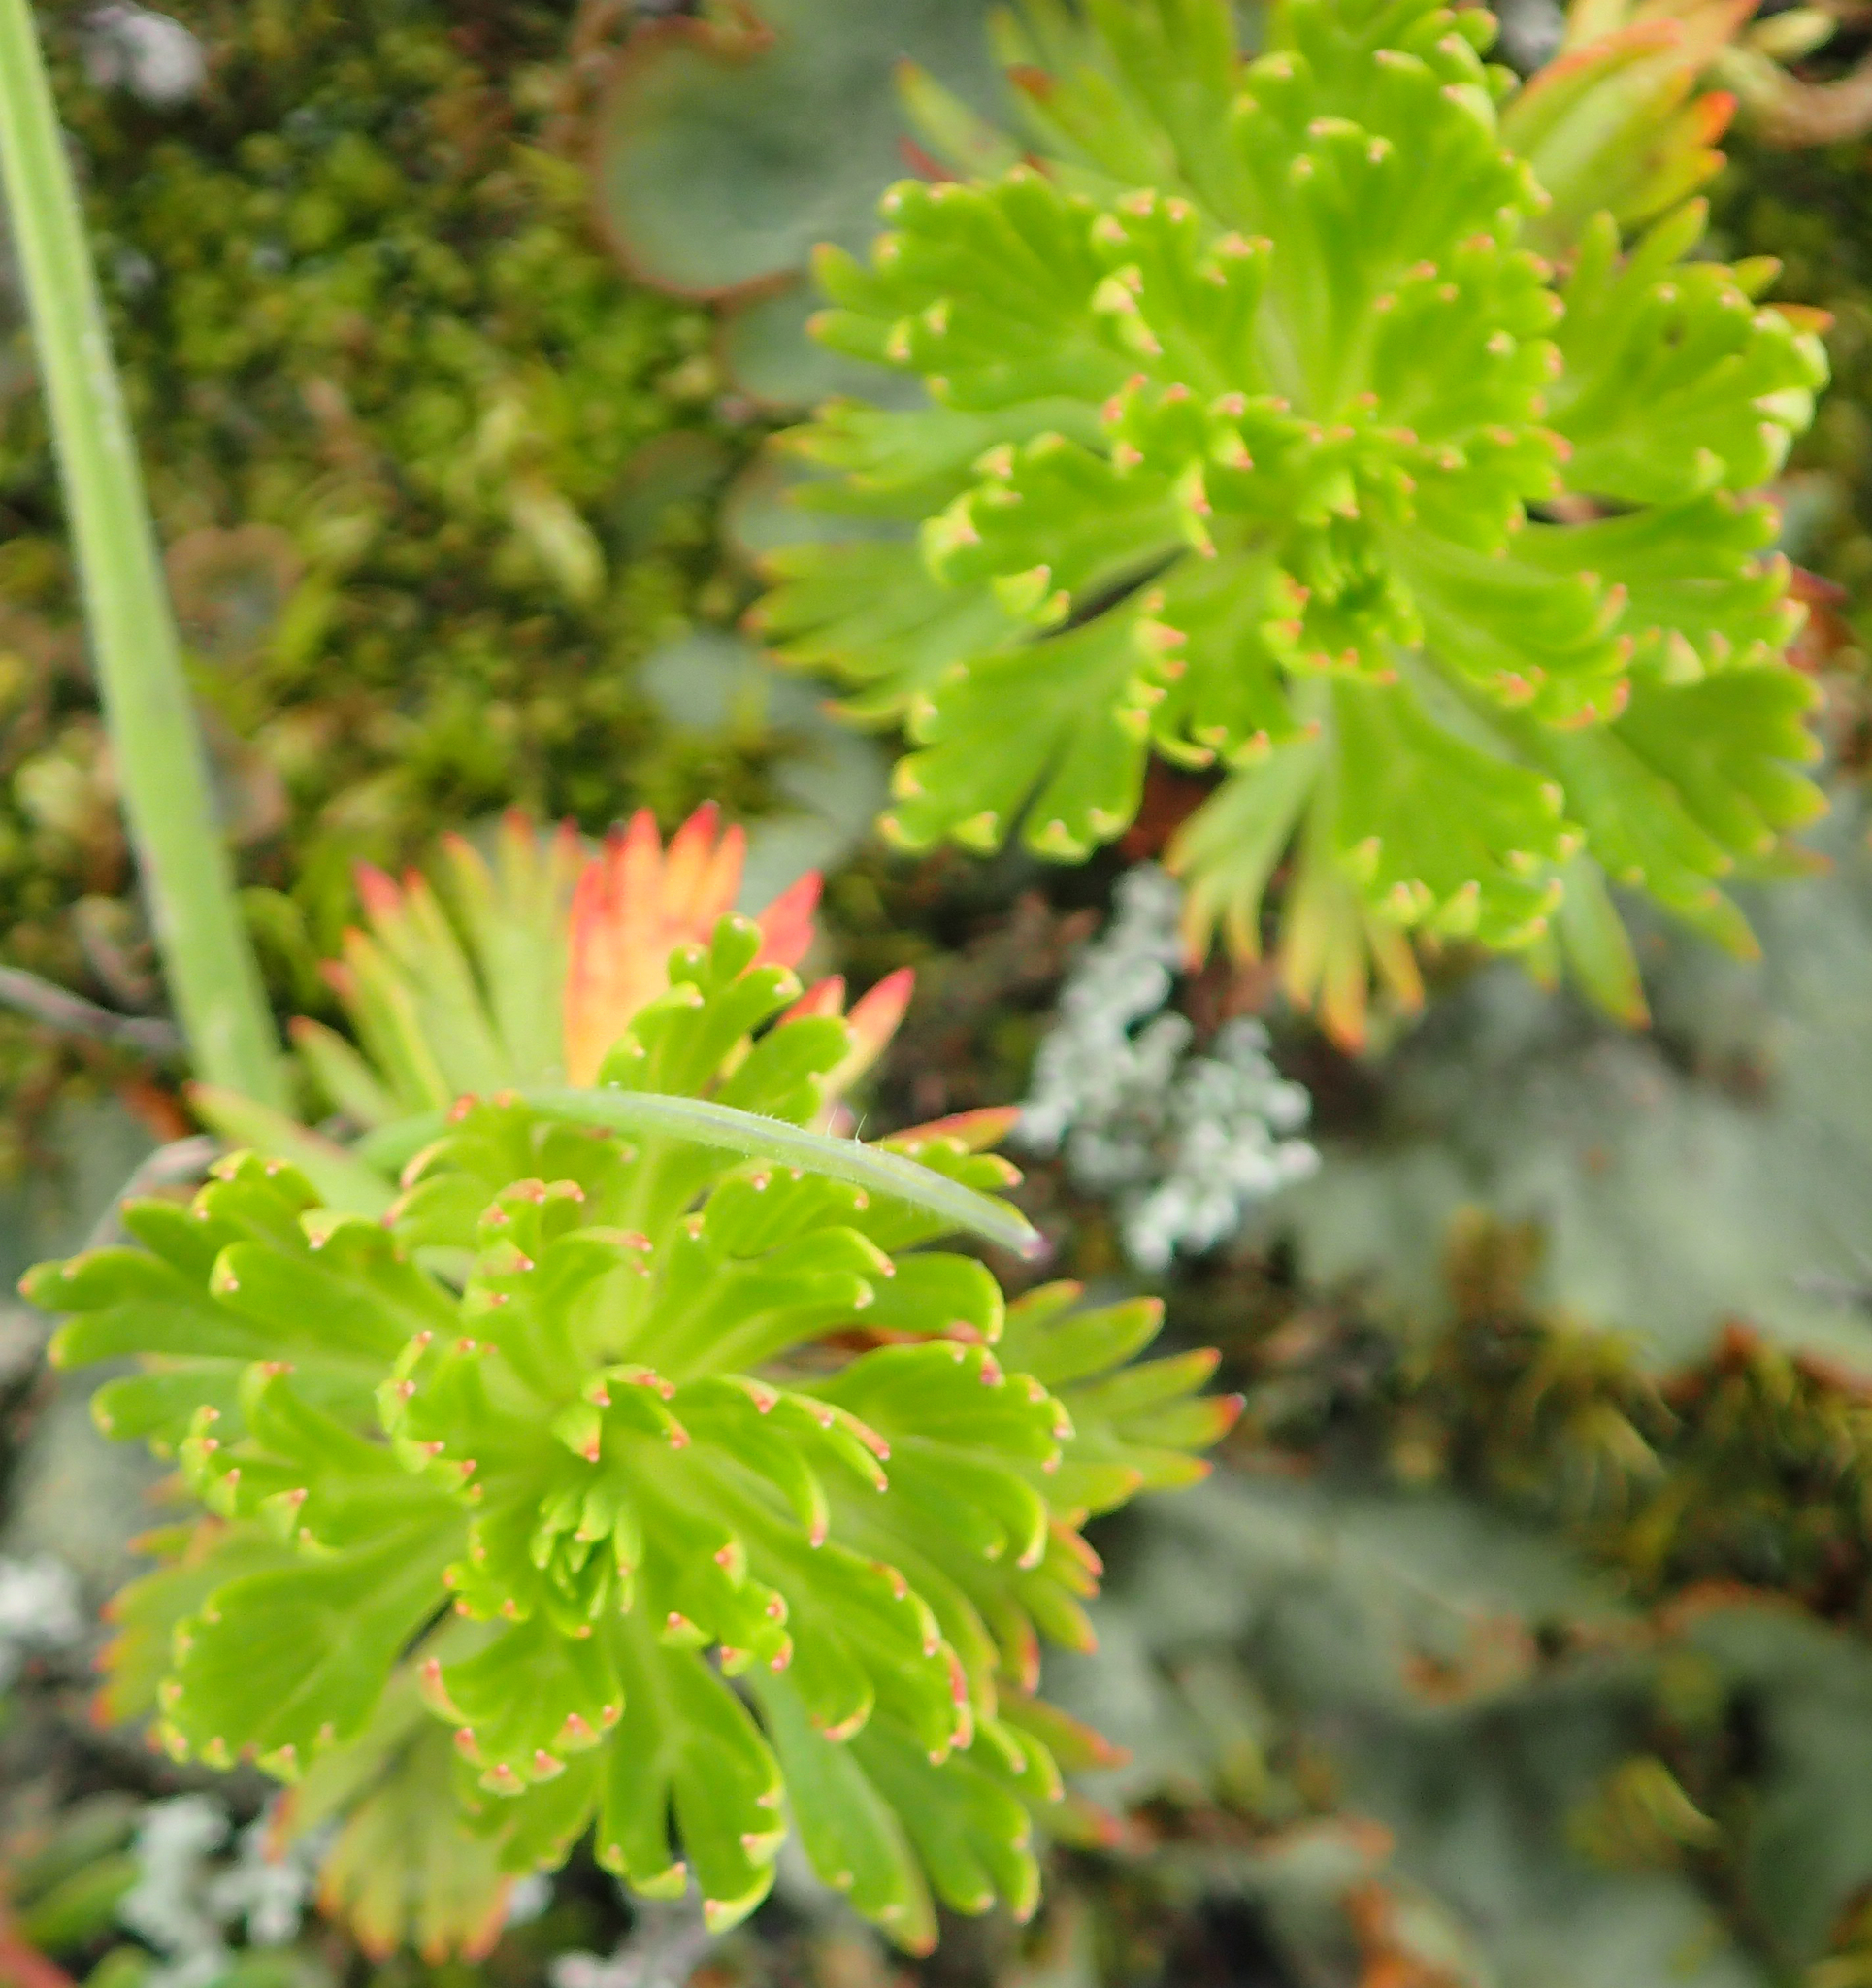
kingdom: Plantae
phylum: Tracheophyta
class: Magnoliopsida
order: Rosales
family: Rosaceae
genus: Luetkea
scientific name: Luetkea pectinata
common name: Partridgefoot
